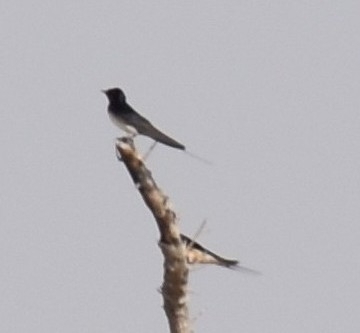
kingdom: Animalia
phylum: Chordata
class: Aves
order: Passeriformes
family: Hirundinidae
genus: Hirundo
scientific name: Hirundo rustica
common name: Barn swallow
